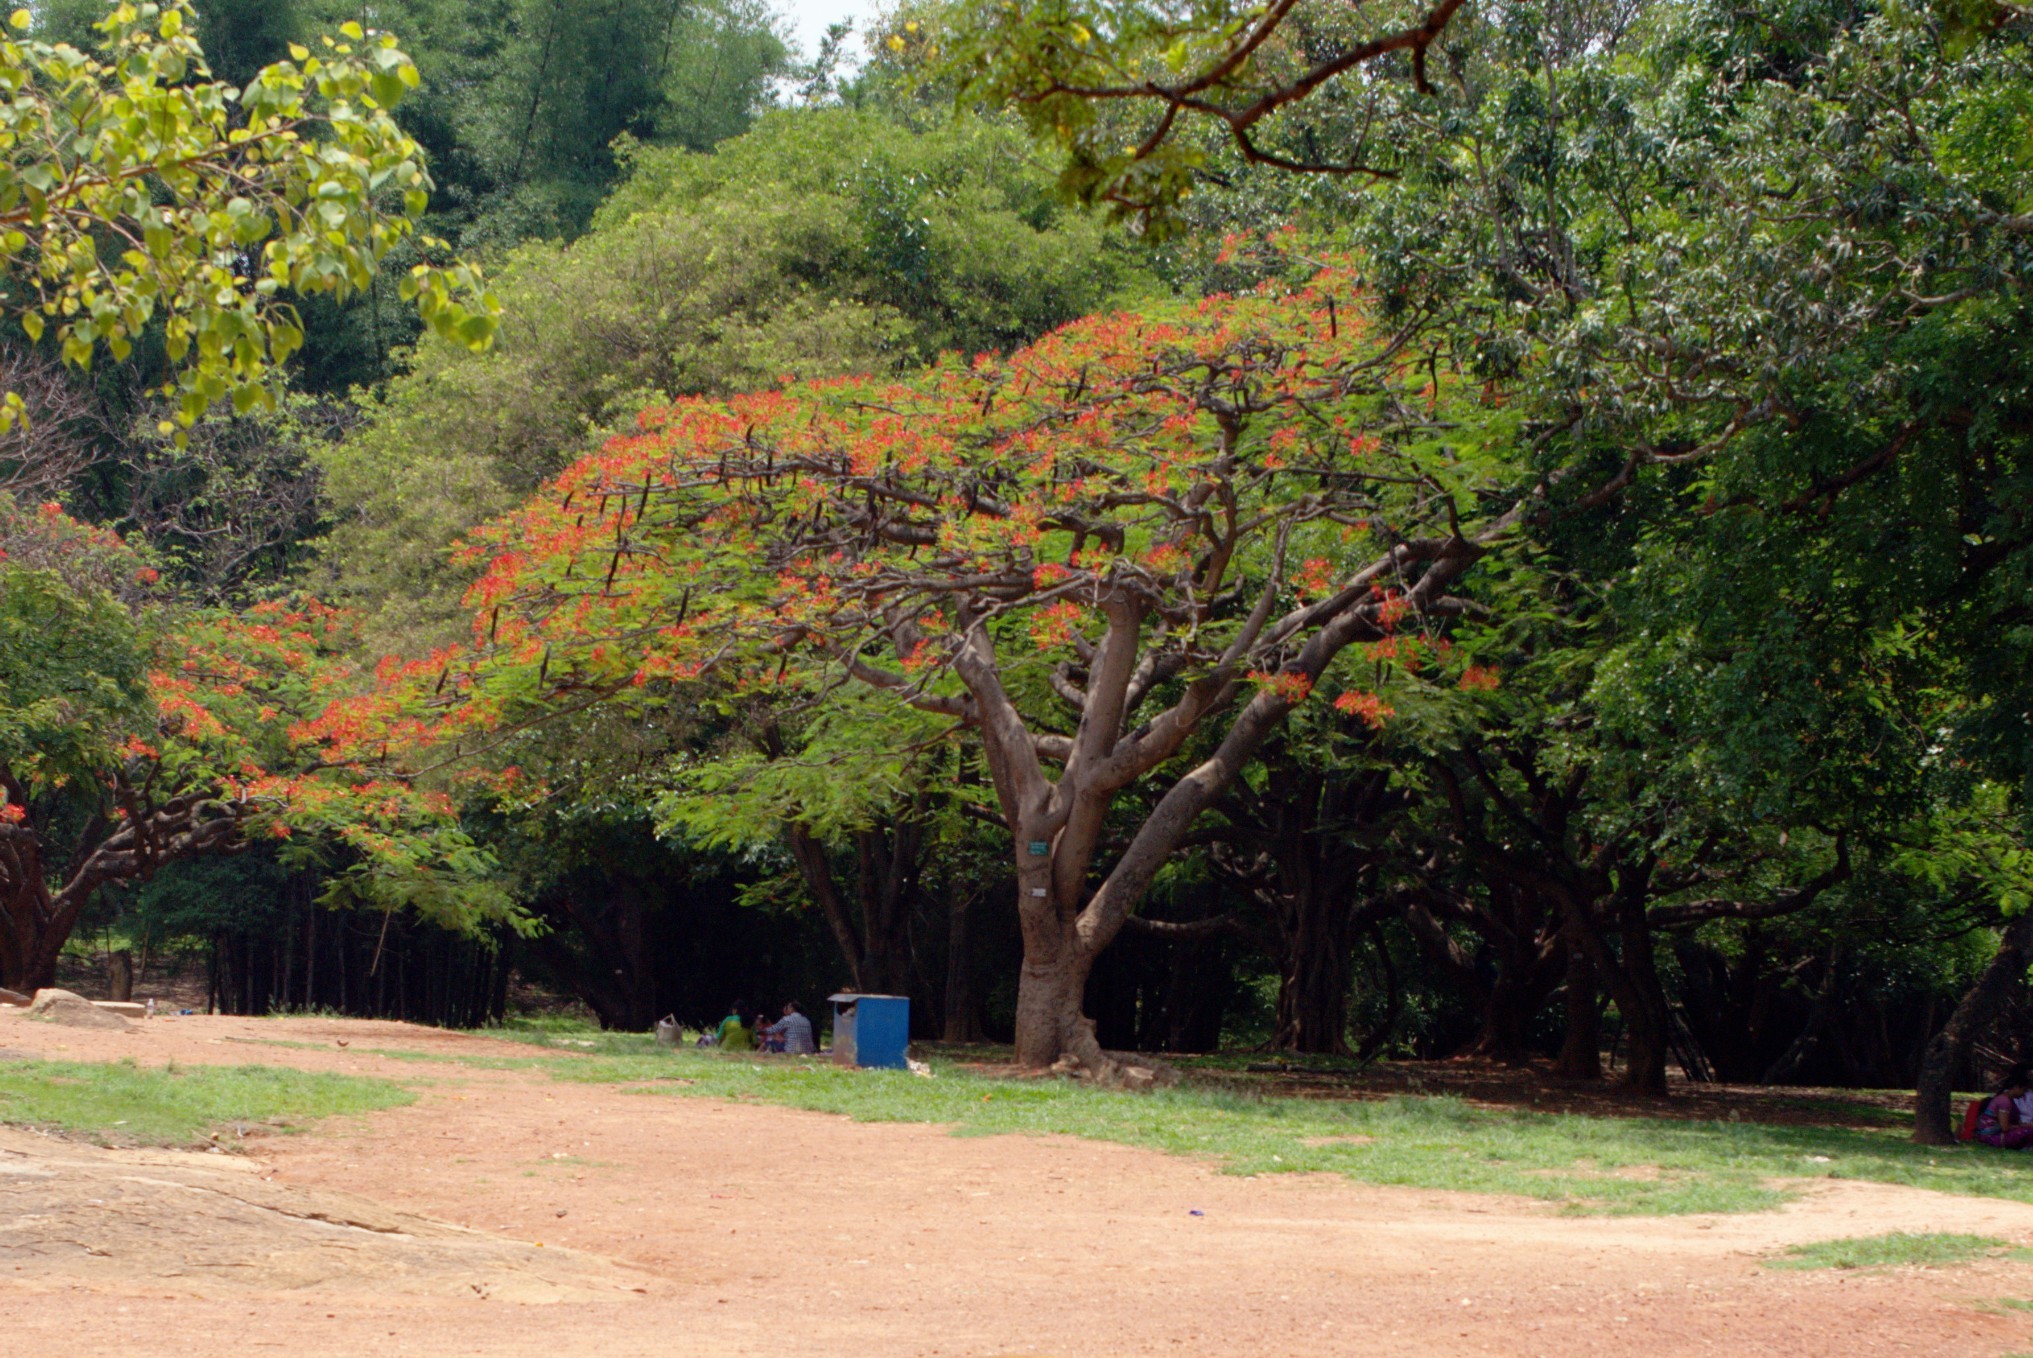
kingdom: Plantae
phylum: Tracheophyta
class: Magnoliopsida
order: Fabales
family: Fabaceae
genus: Delonix
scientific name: Delonix regia
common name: Royal poinciana
